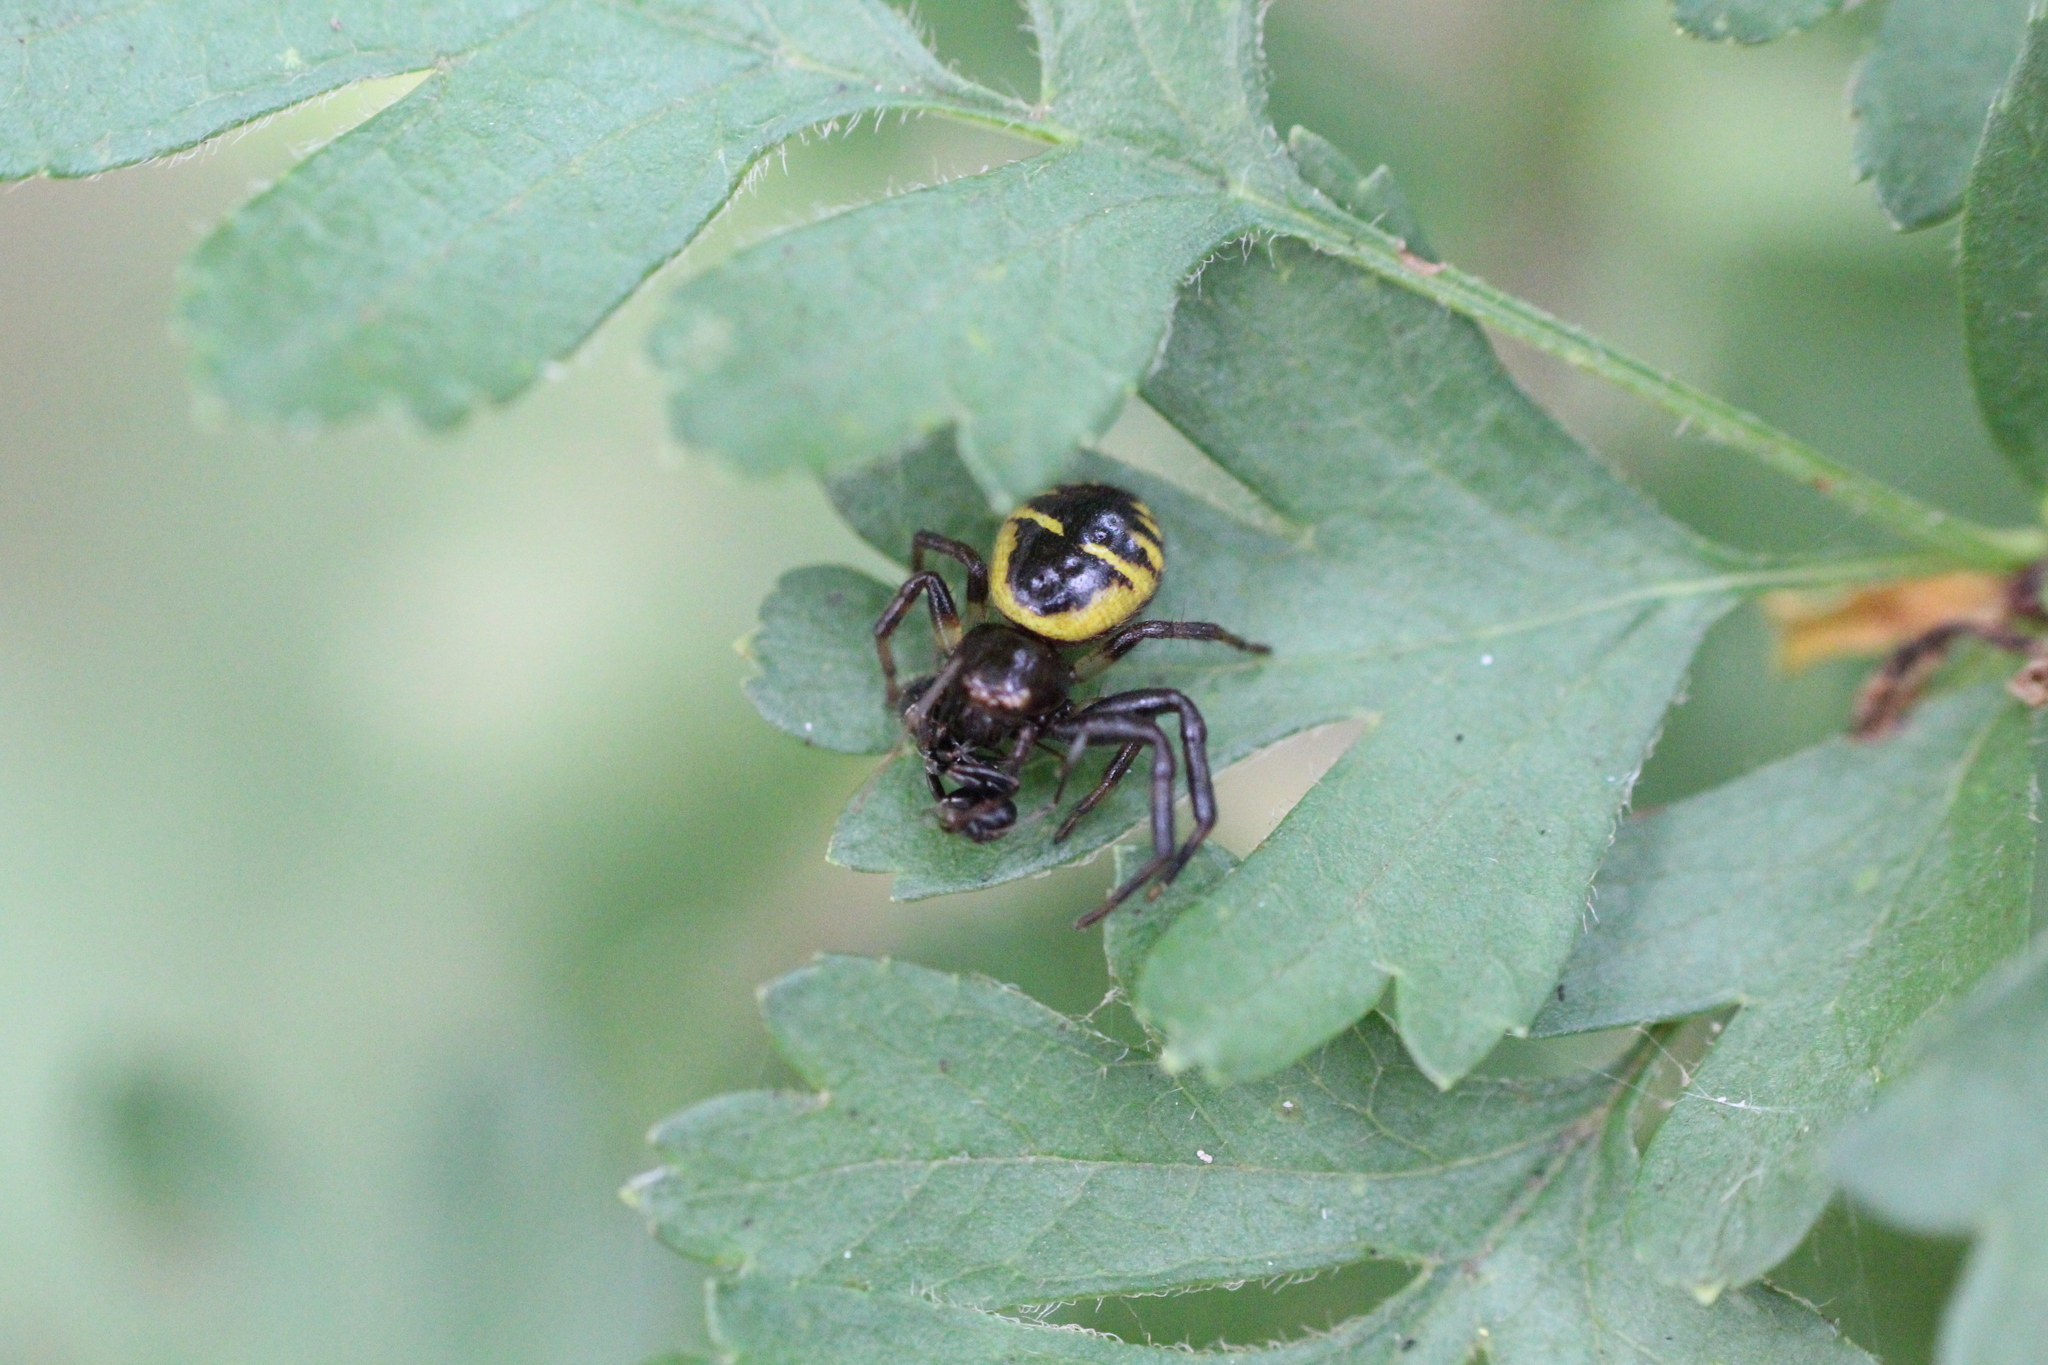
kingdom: Animalia
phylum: Arthropoda
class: Arachnida
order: Araneae
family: Thomisidae
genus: Synema
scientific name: Synema globosum
